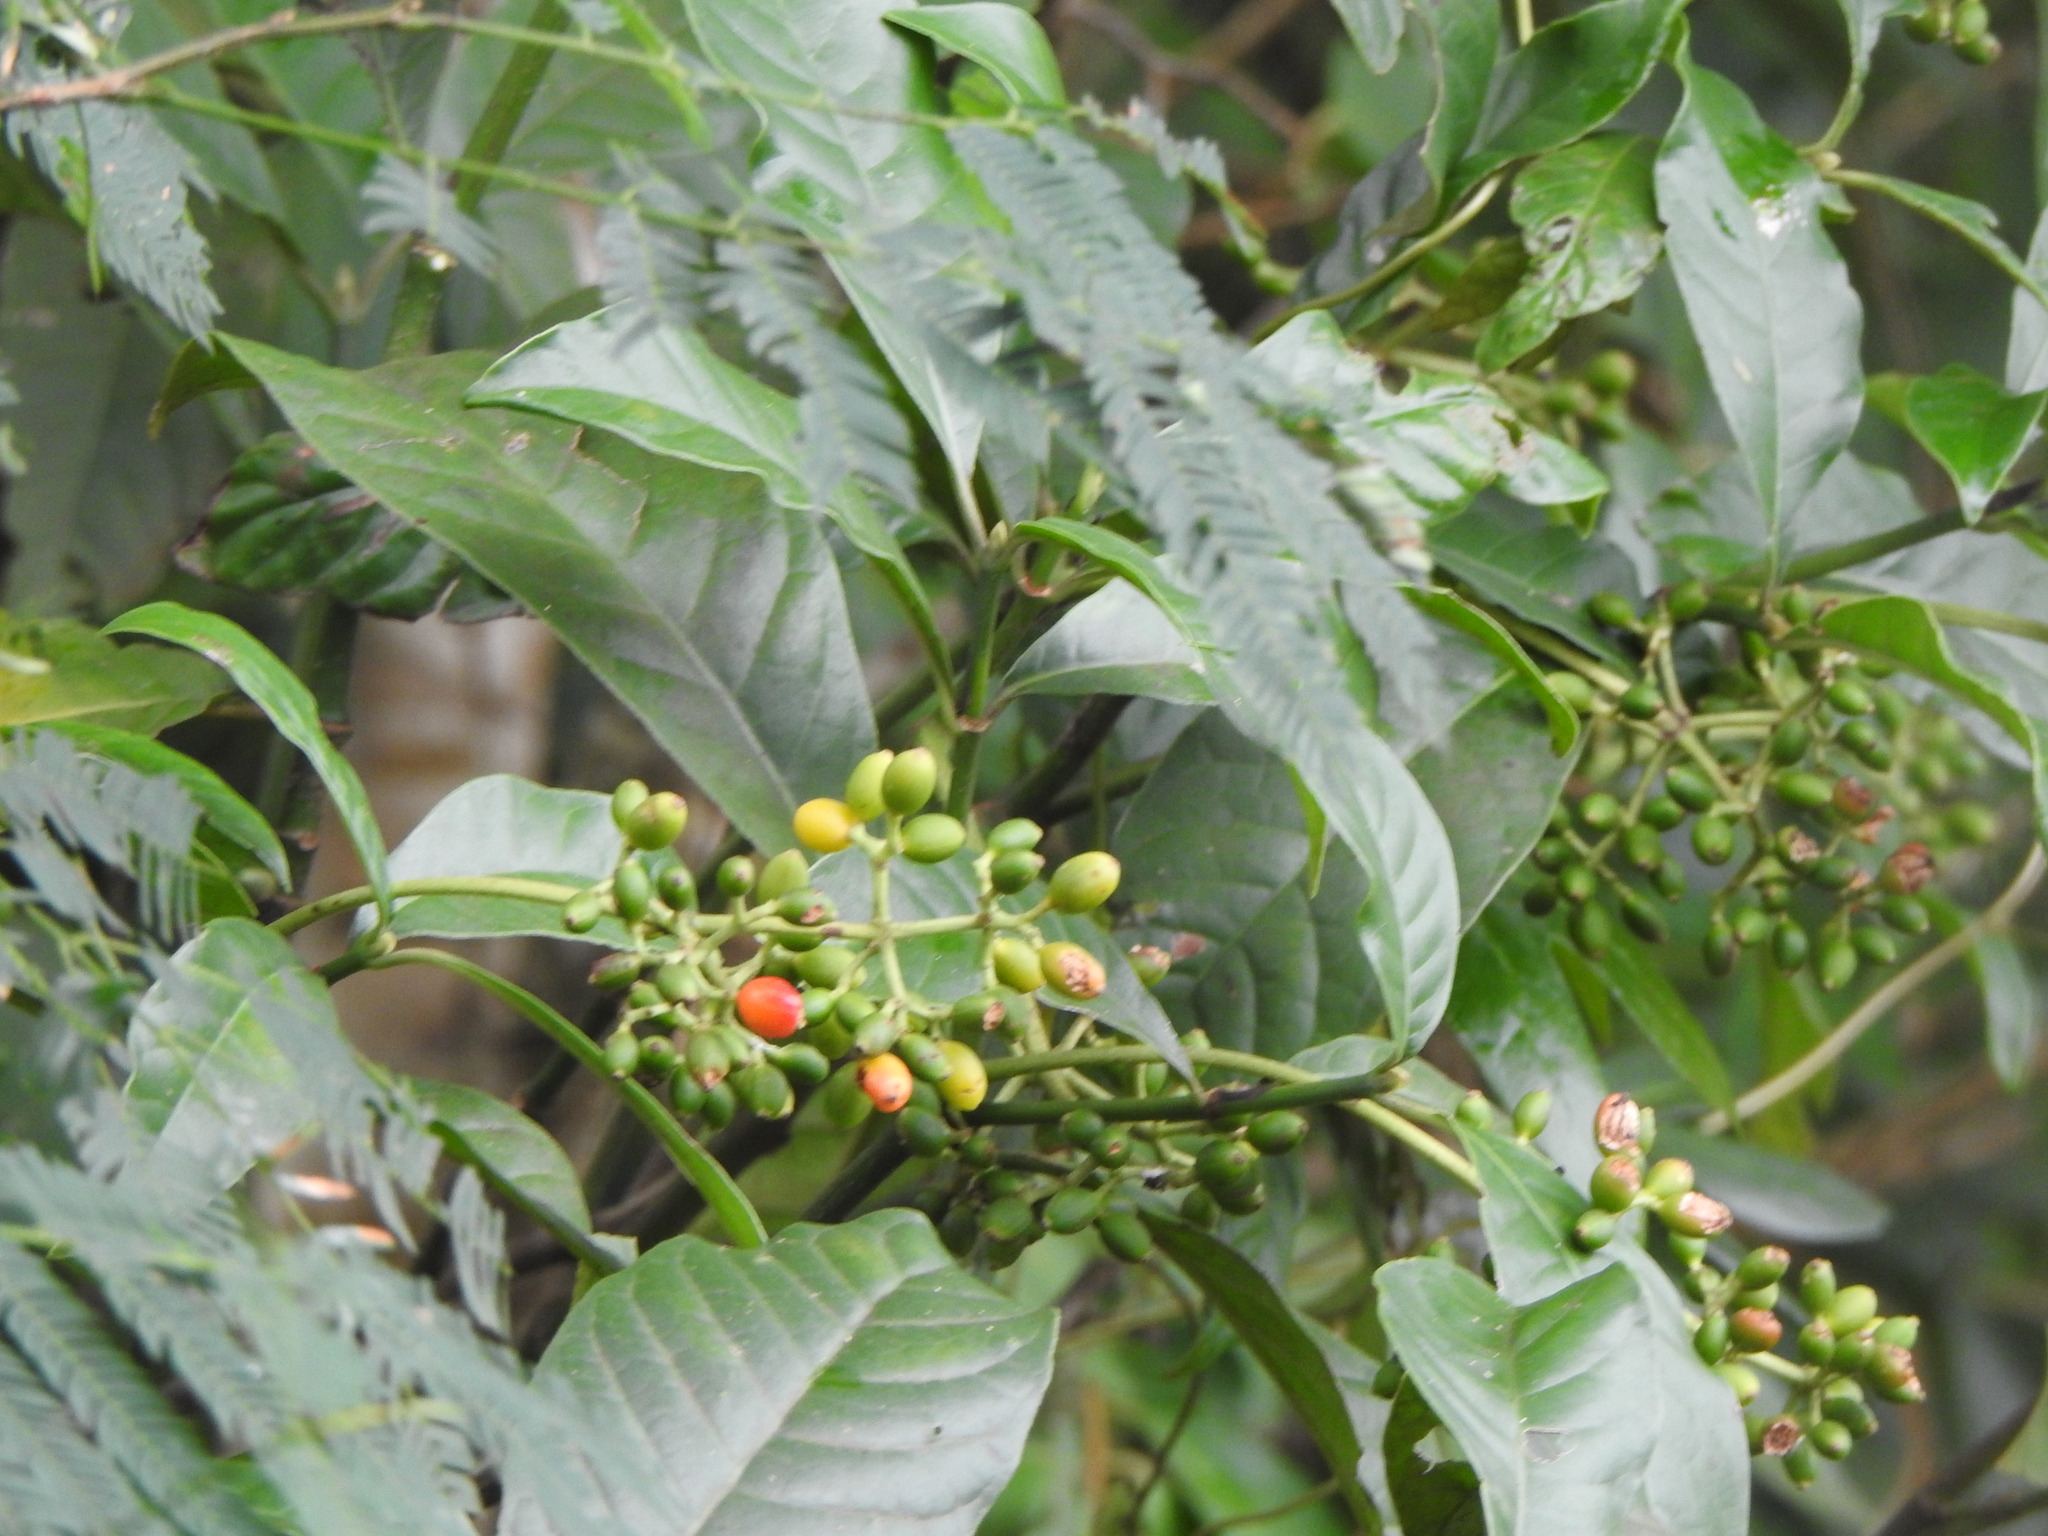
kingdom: Plantae
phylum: Tracheophyta
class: Magnoliopsida
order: Gentianales
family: Rubiaceae
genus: Psychotria
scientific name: Psychotria carthagenensis
